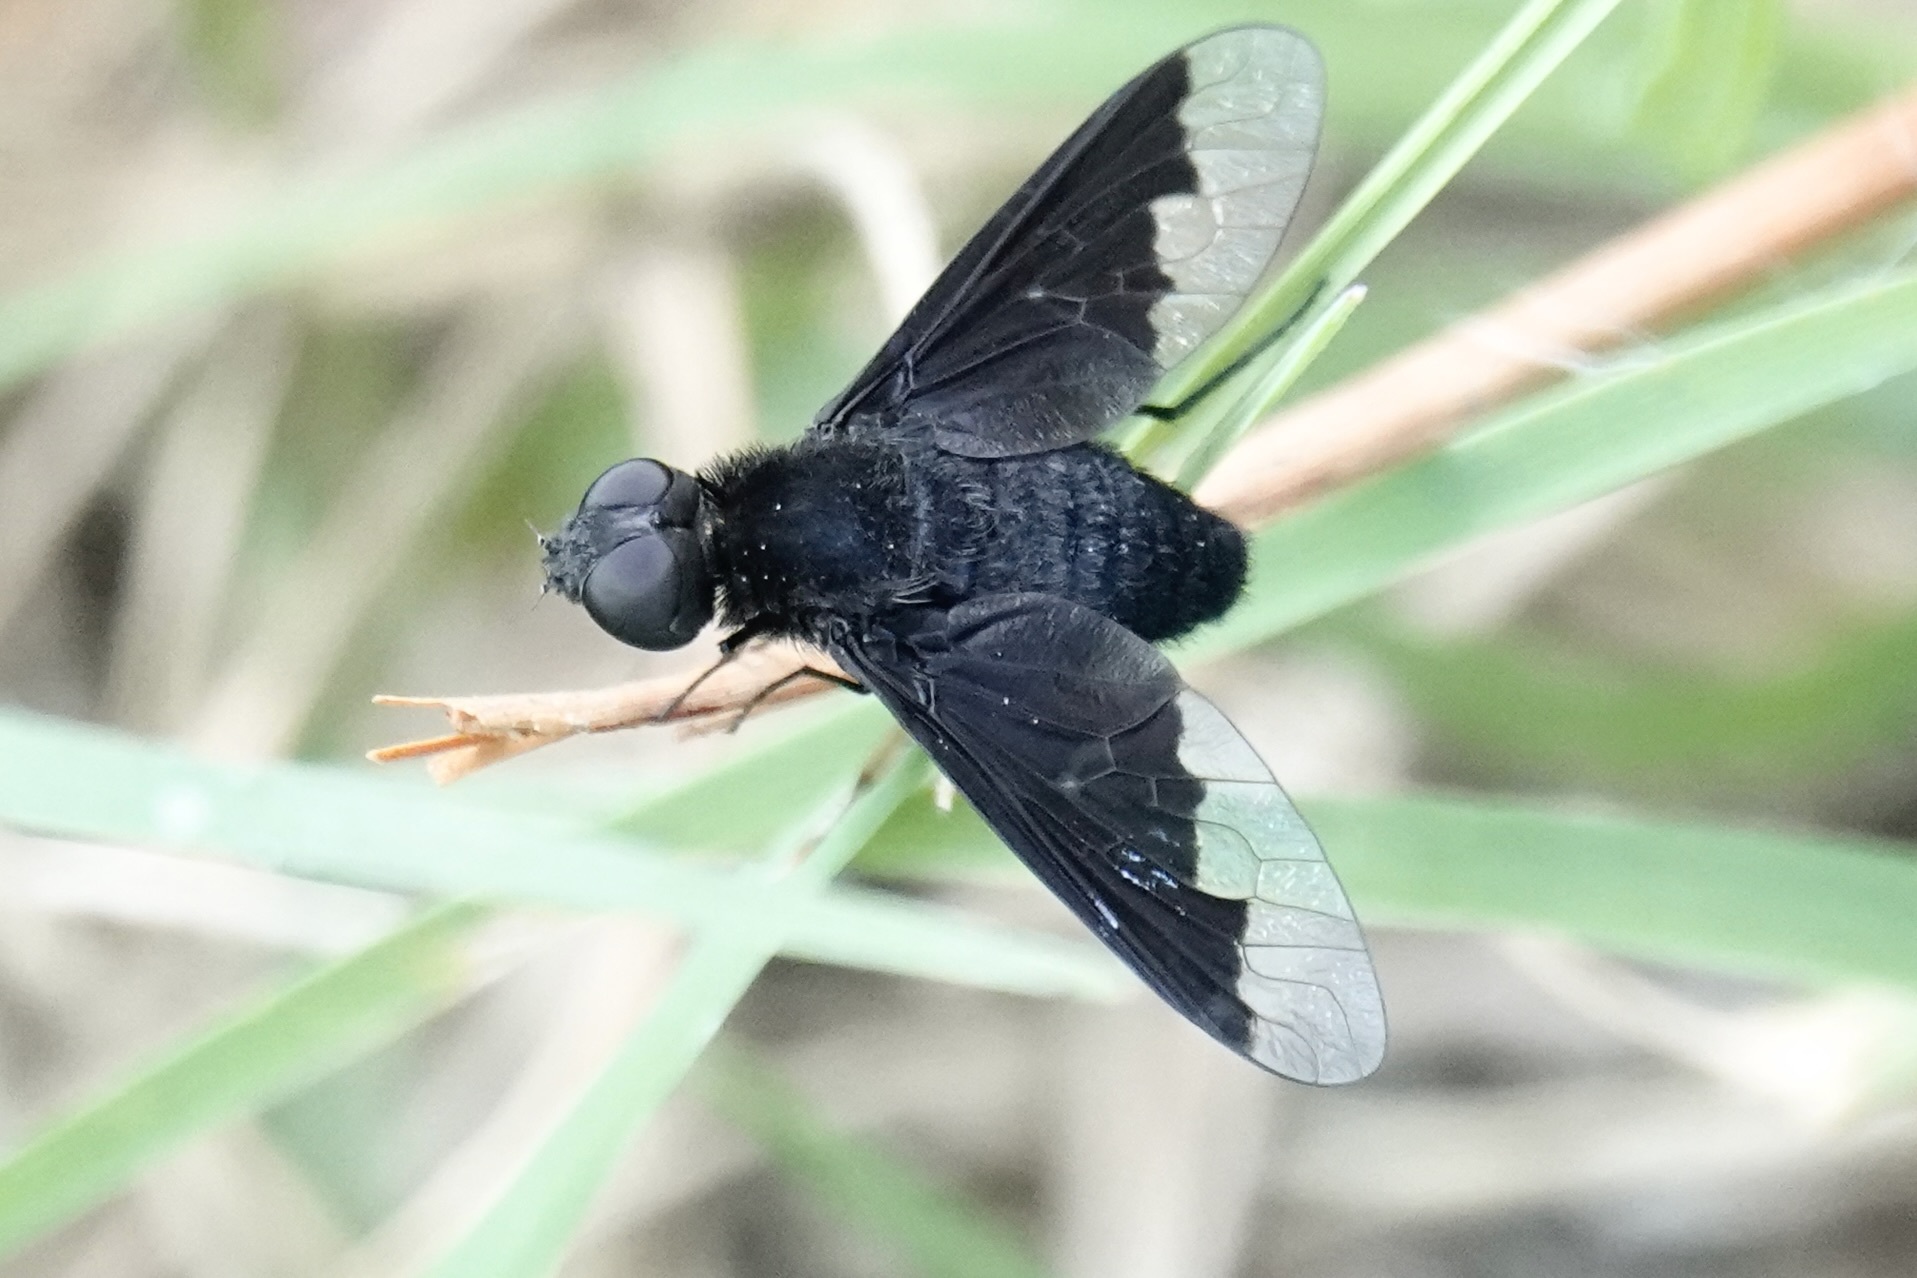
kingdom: Animalia
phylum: Arthropoda
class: Insecta
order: Diptera
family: Bombyliidae
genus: Anthrax
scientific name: Anthrax analis
